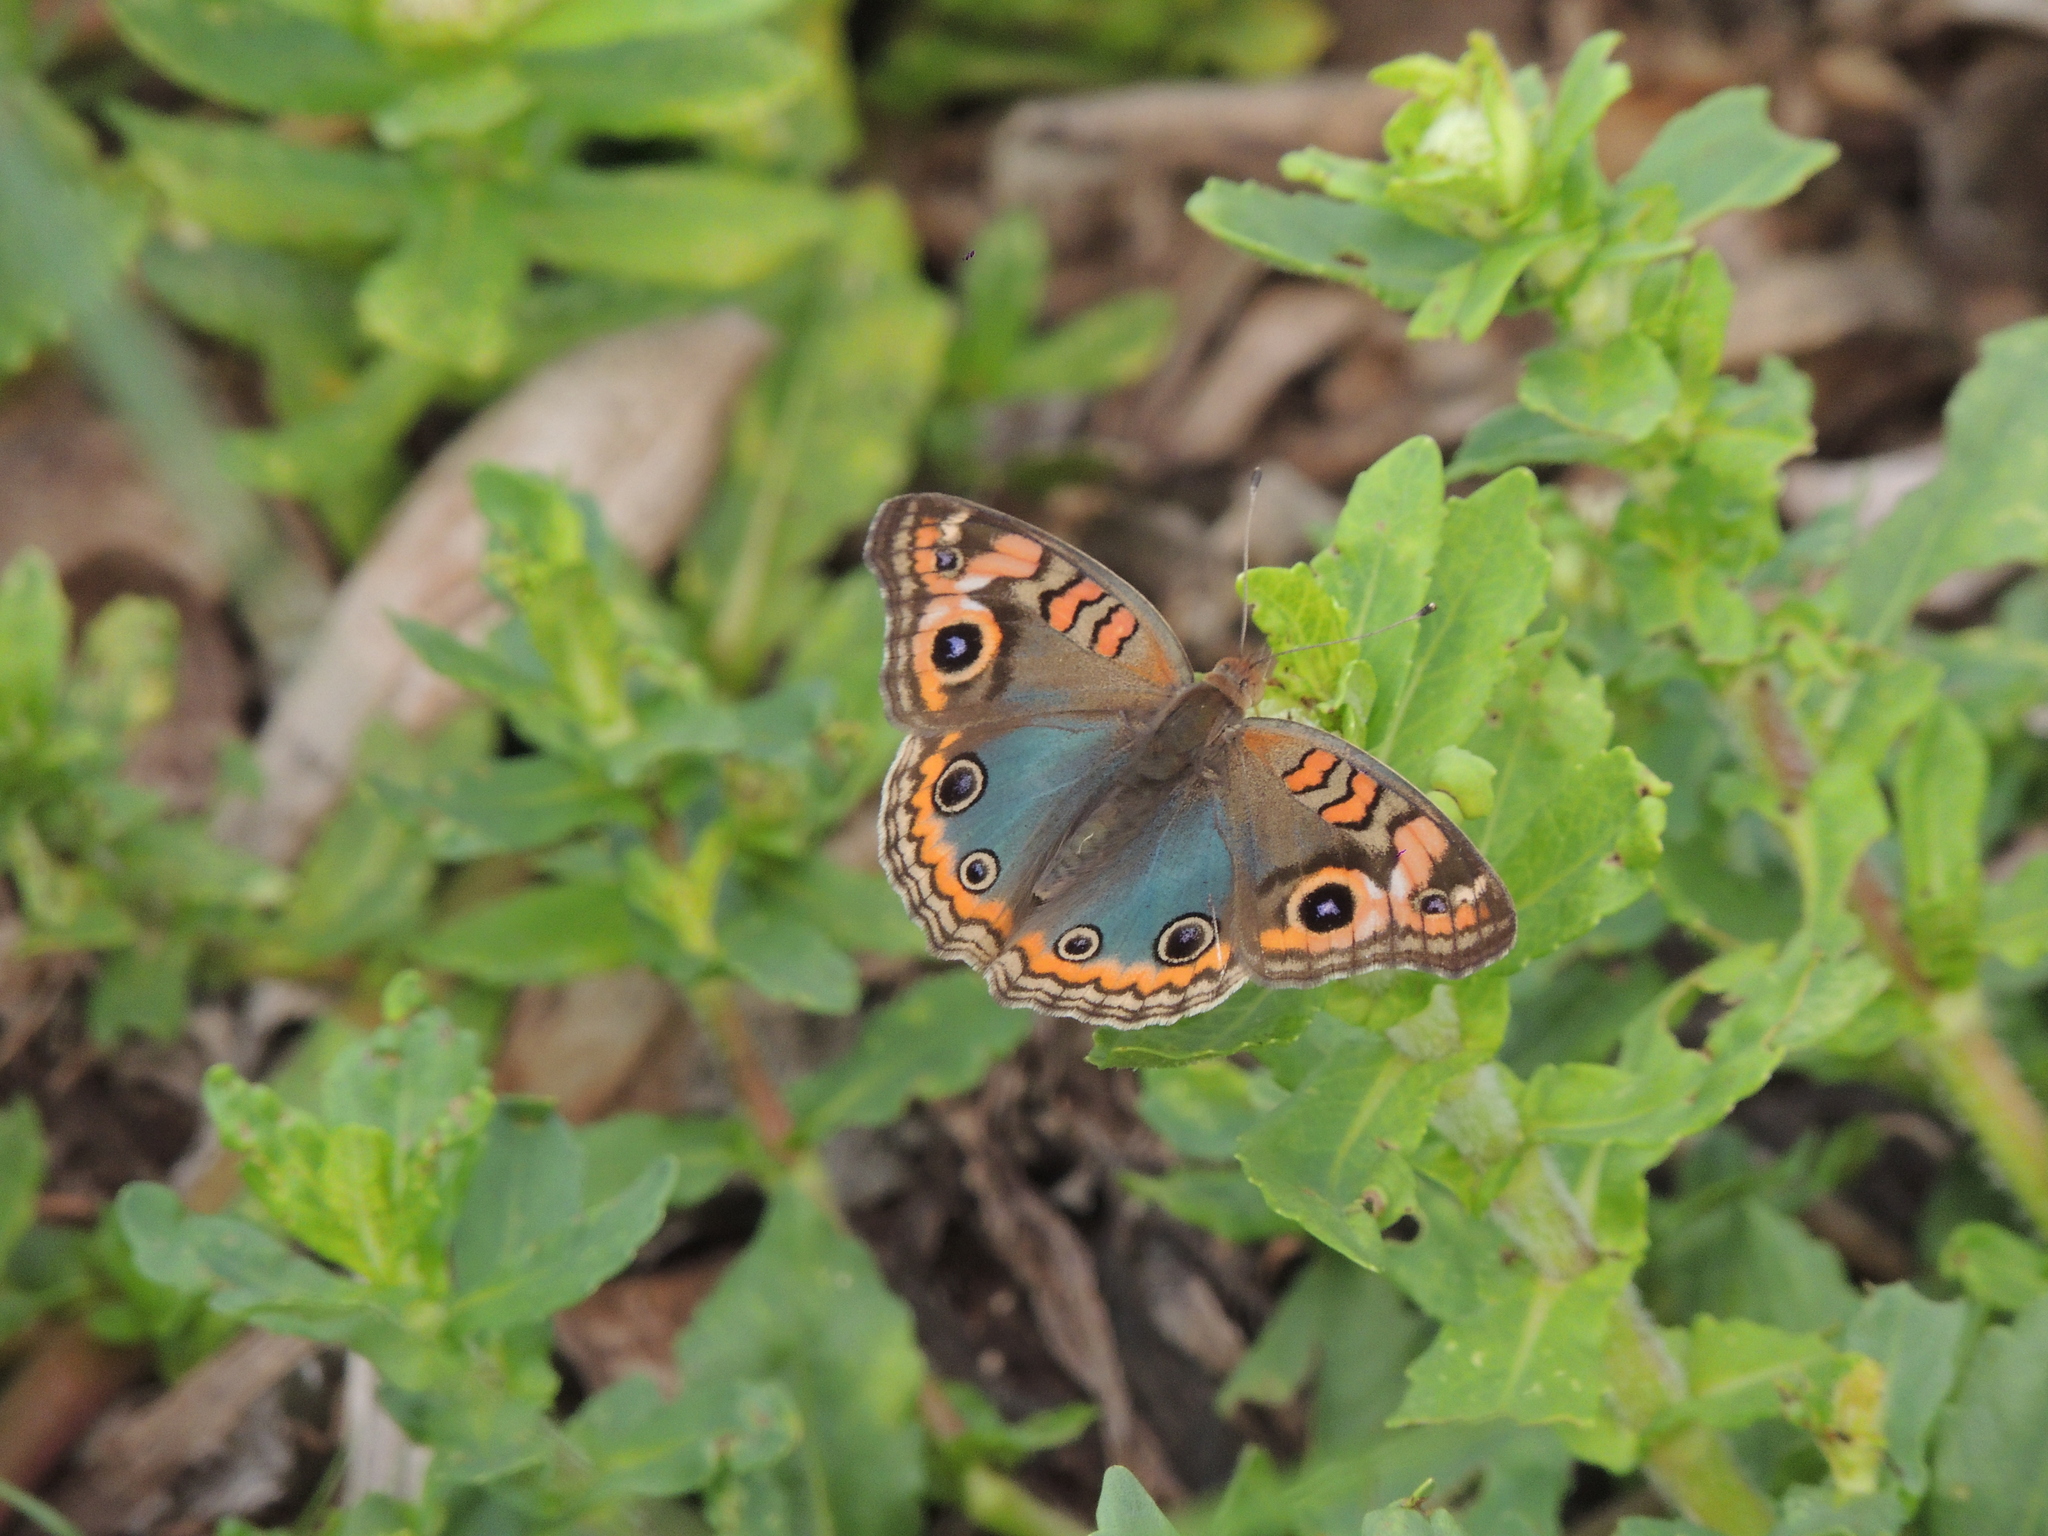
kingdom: Animalia
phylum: Arthropoda
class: Insecta
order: Lepidoptera
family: Nymphalidae
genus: Junonia
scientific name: Junonia lavinia
